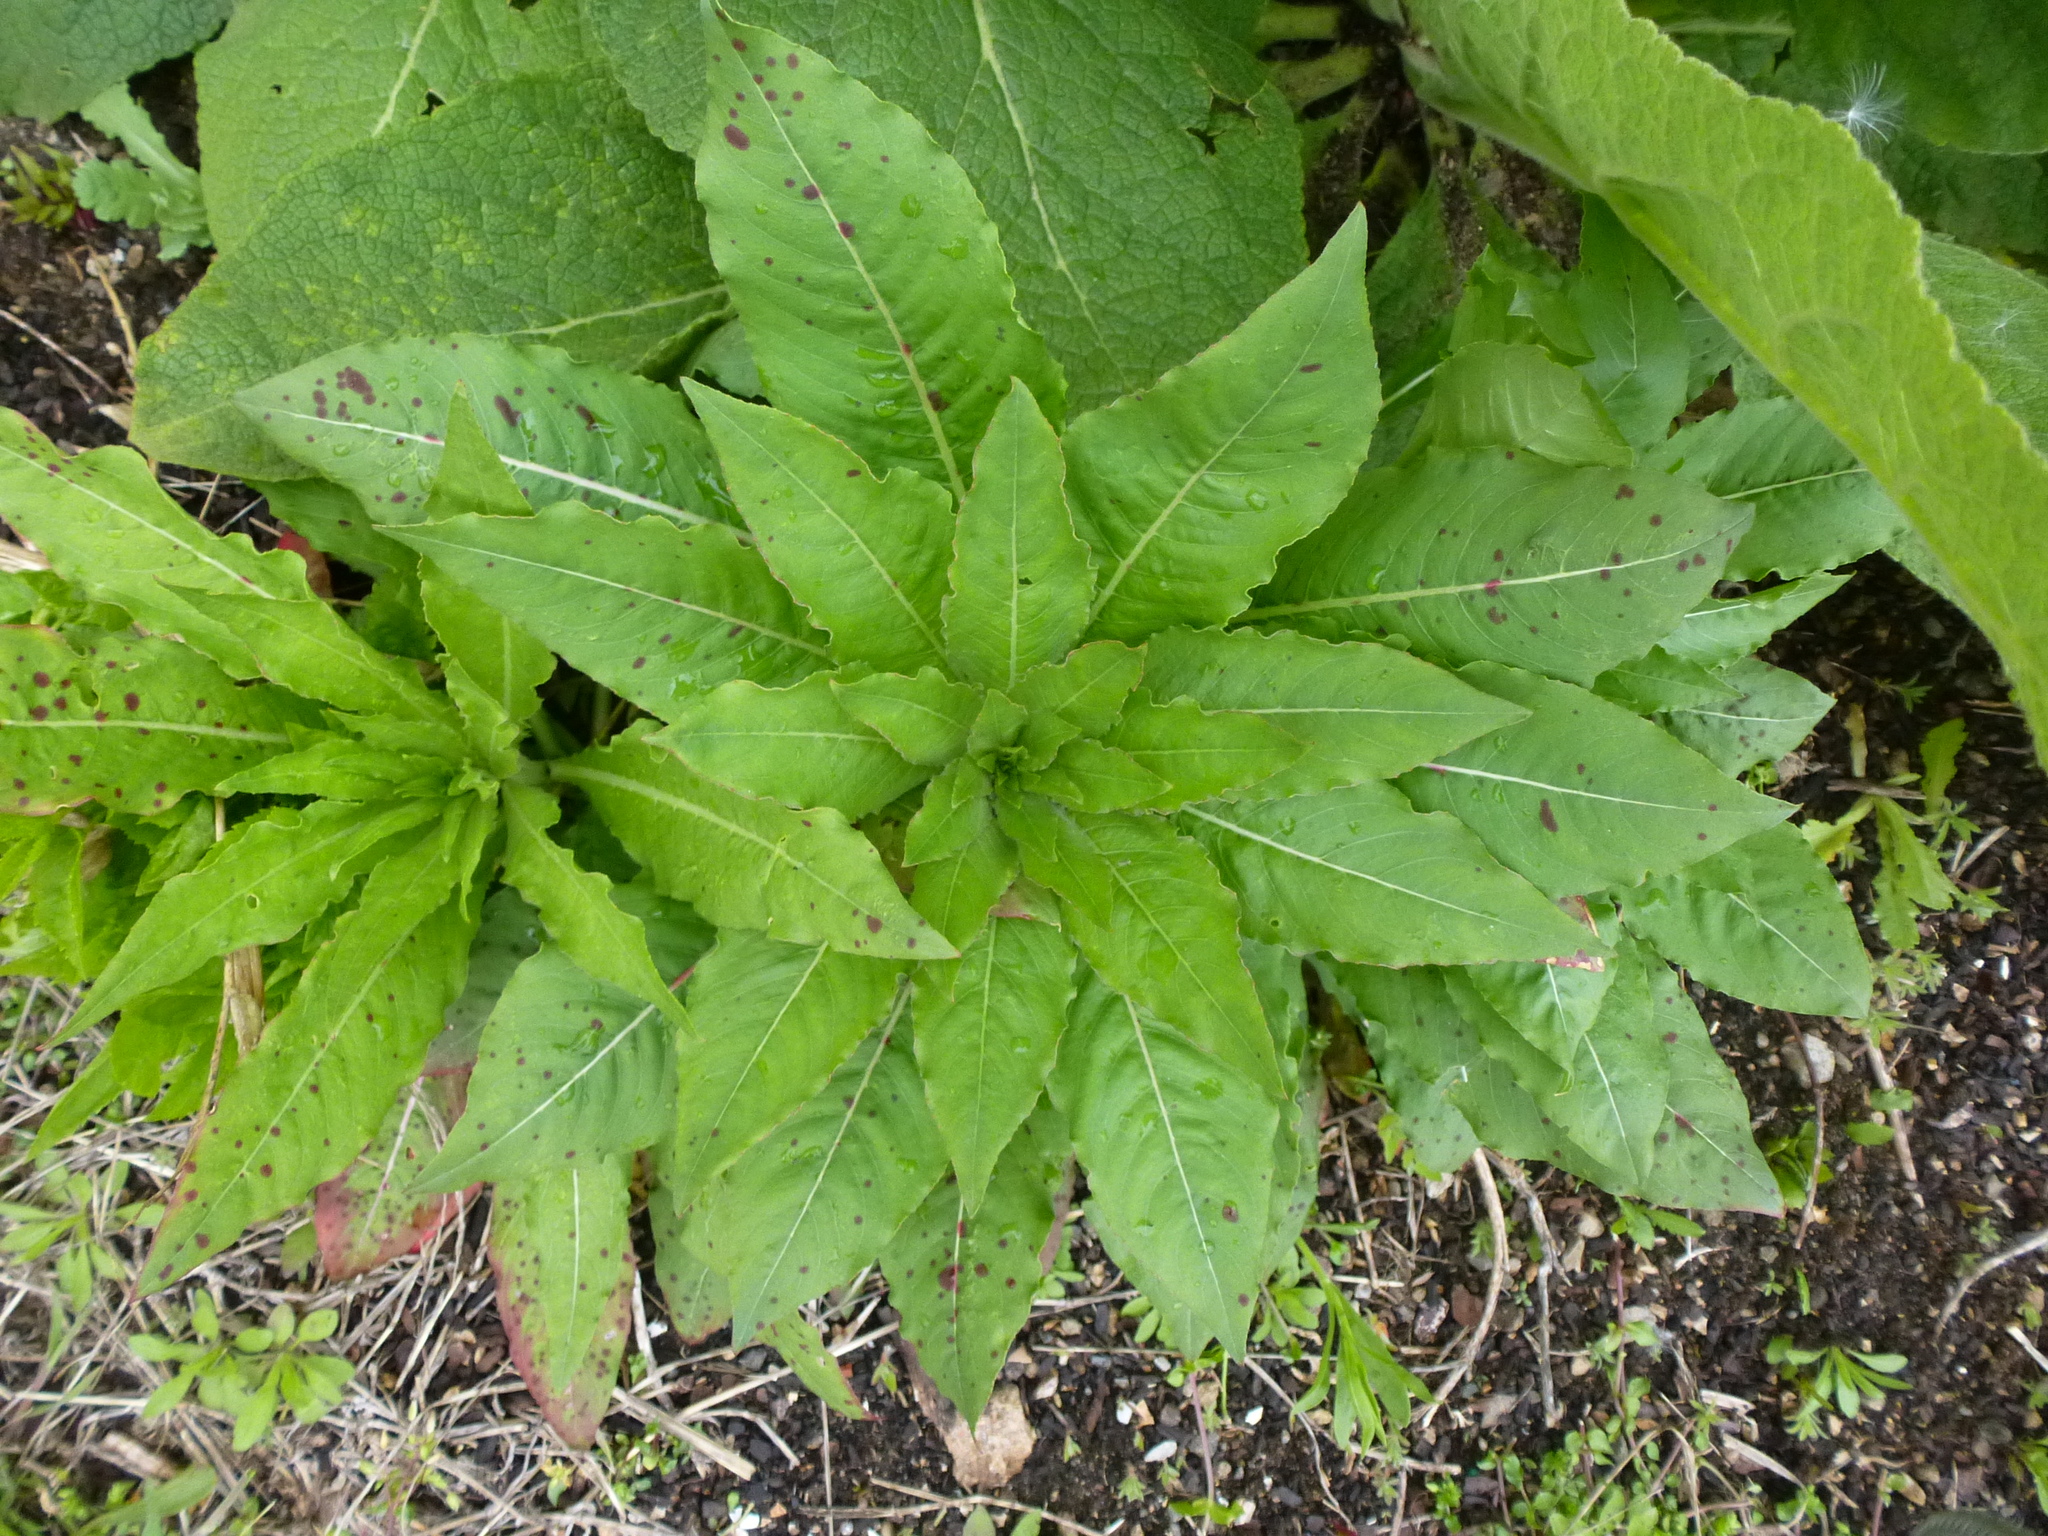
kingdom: Plantae
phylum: Tracheophyta
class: Magnoliopsida
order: Myrtales
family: Onagraceae
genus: Oenothera
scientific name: Oenothera biennis
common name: Common evening-primrose
